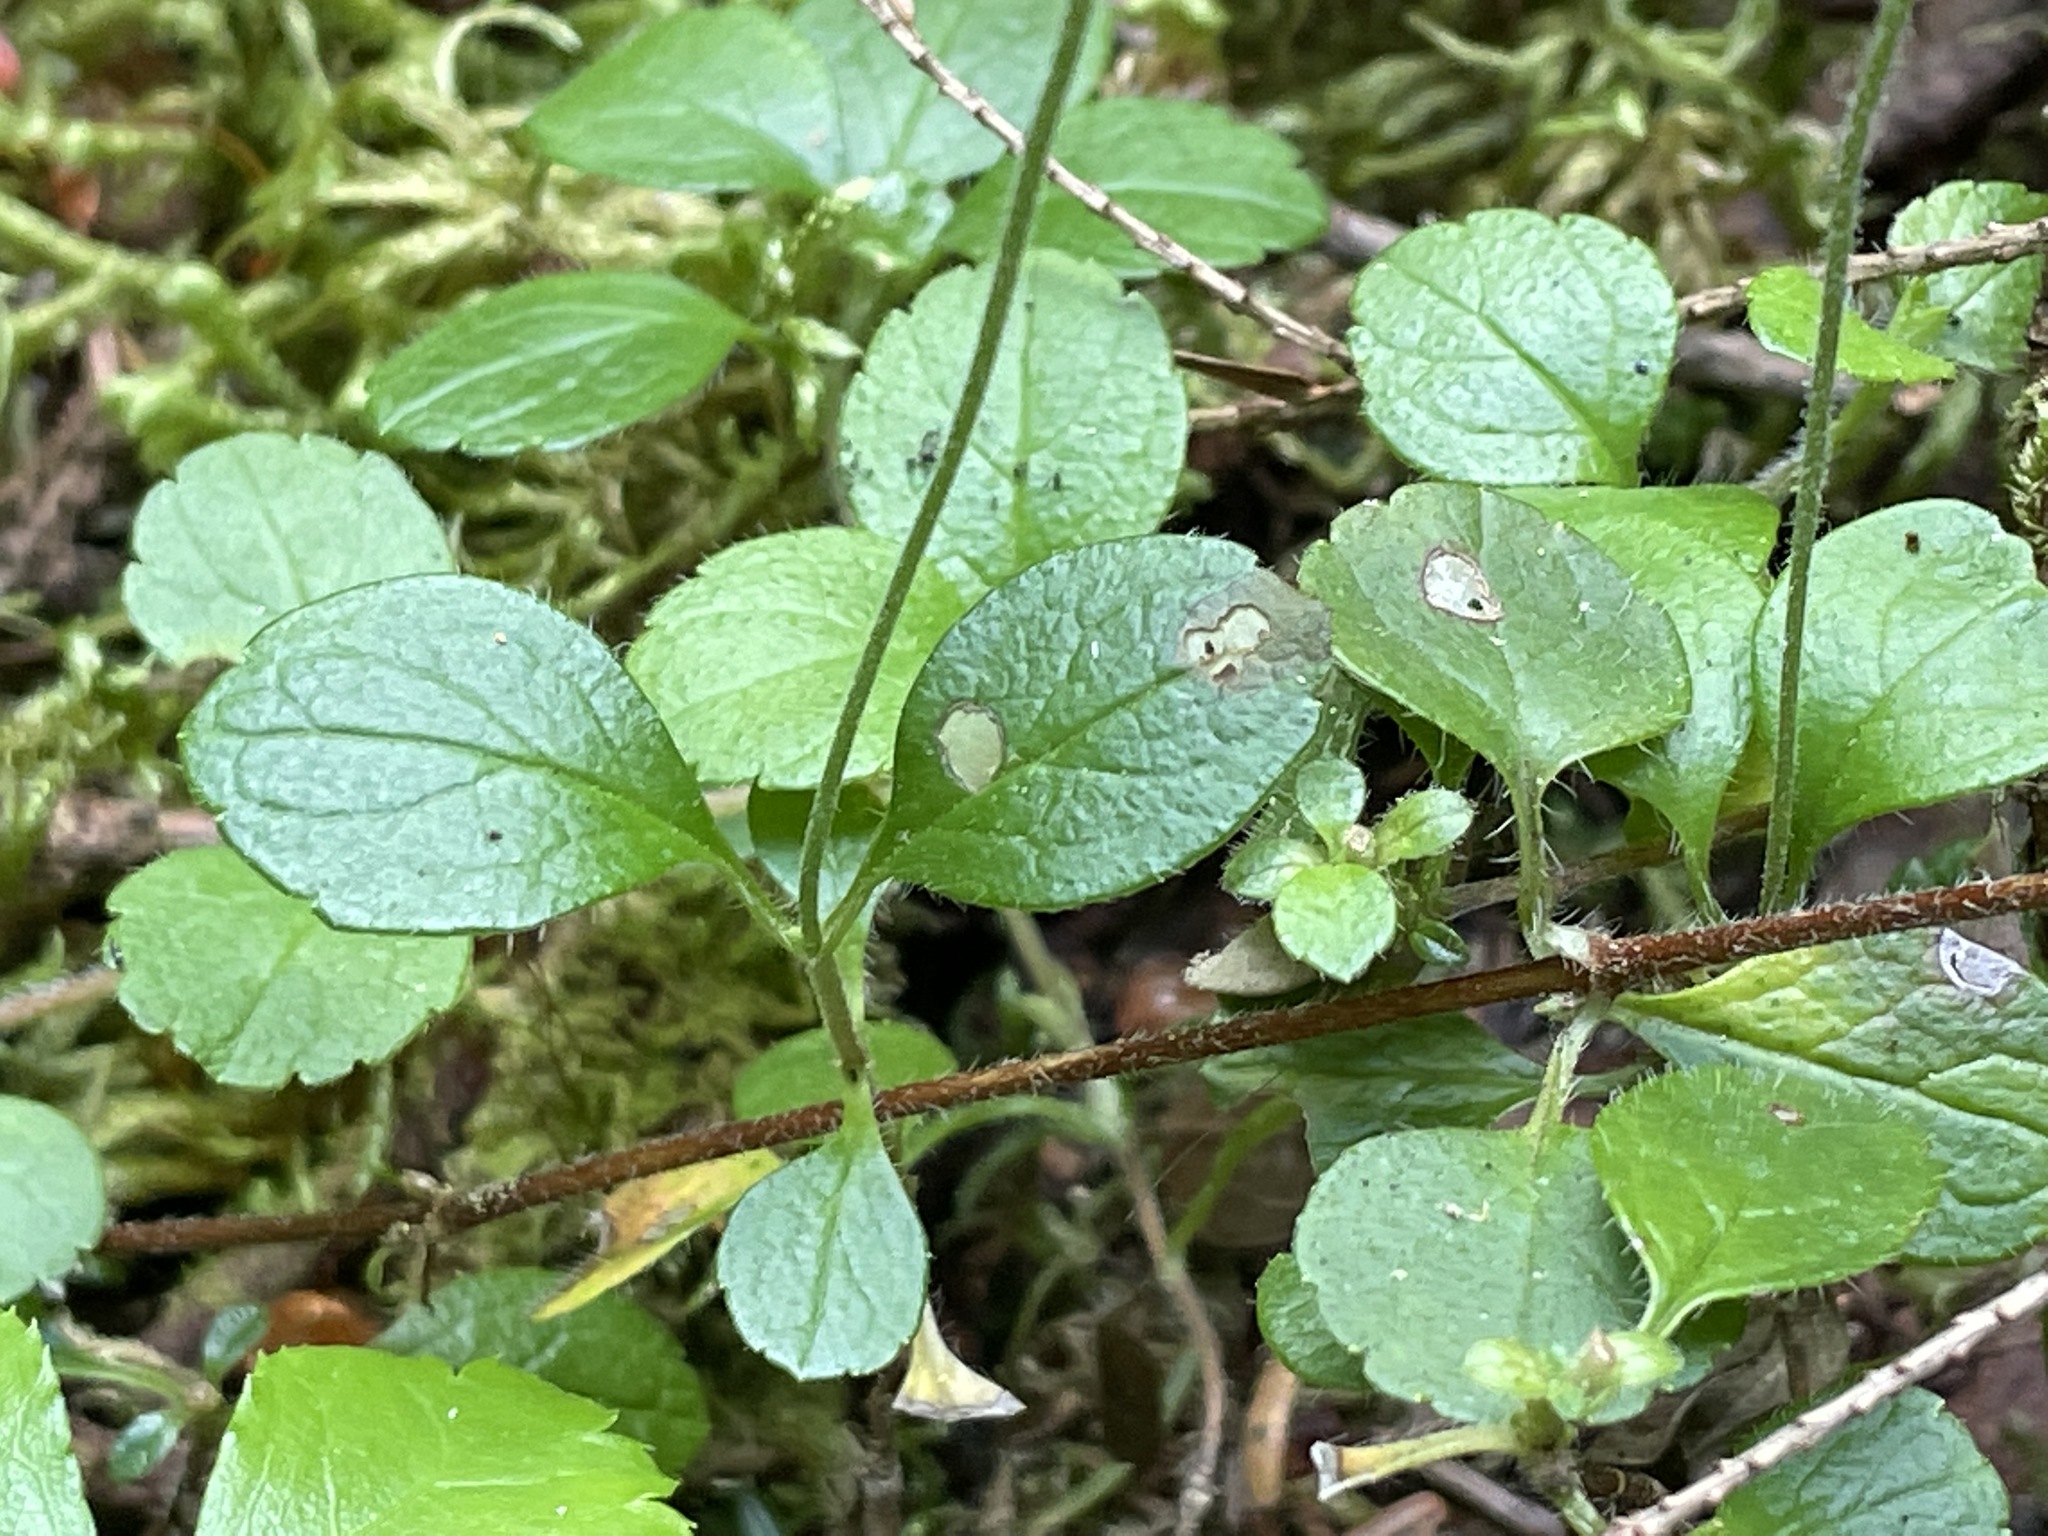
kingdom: Plantae
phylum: Tracheophyta
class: Magnoliopsida
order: Dipsacales
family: Caprifoliaceae
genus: Linnaea
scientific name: Linnaea borealis
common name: Twinflower
